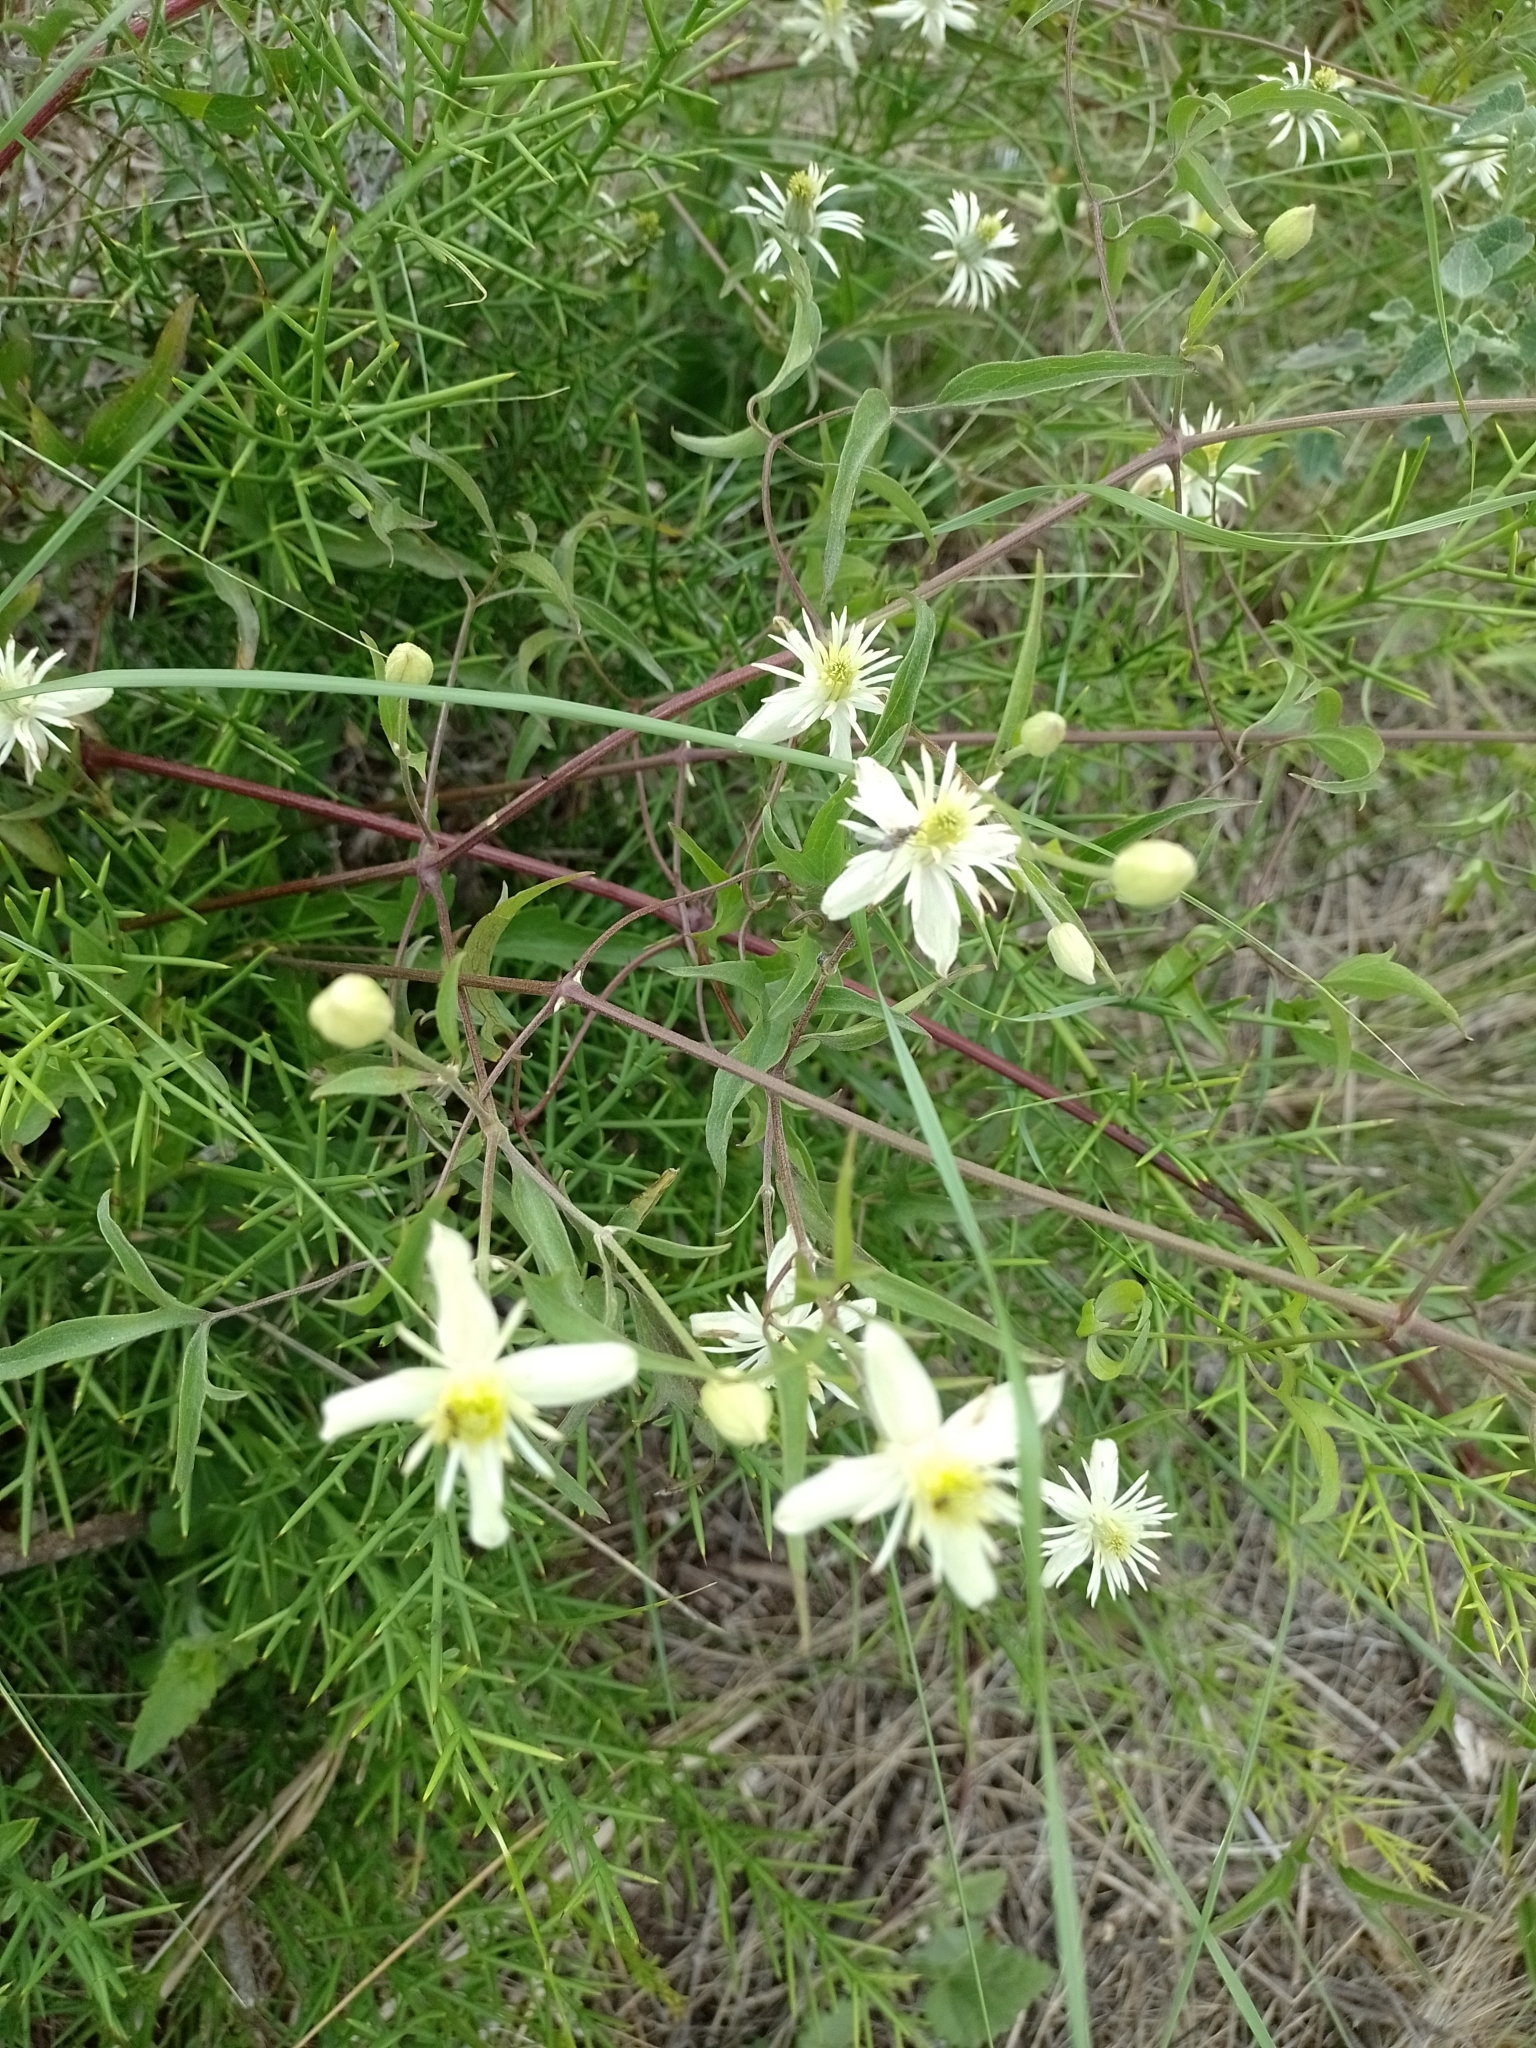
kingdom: Plantae
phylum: Tracheophyta
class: Magnoliopsida
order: Ranunculales
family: Ranunculaceae
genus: Clematis
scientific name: Clematis montevidensis
